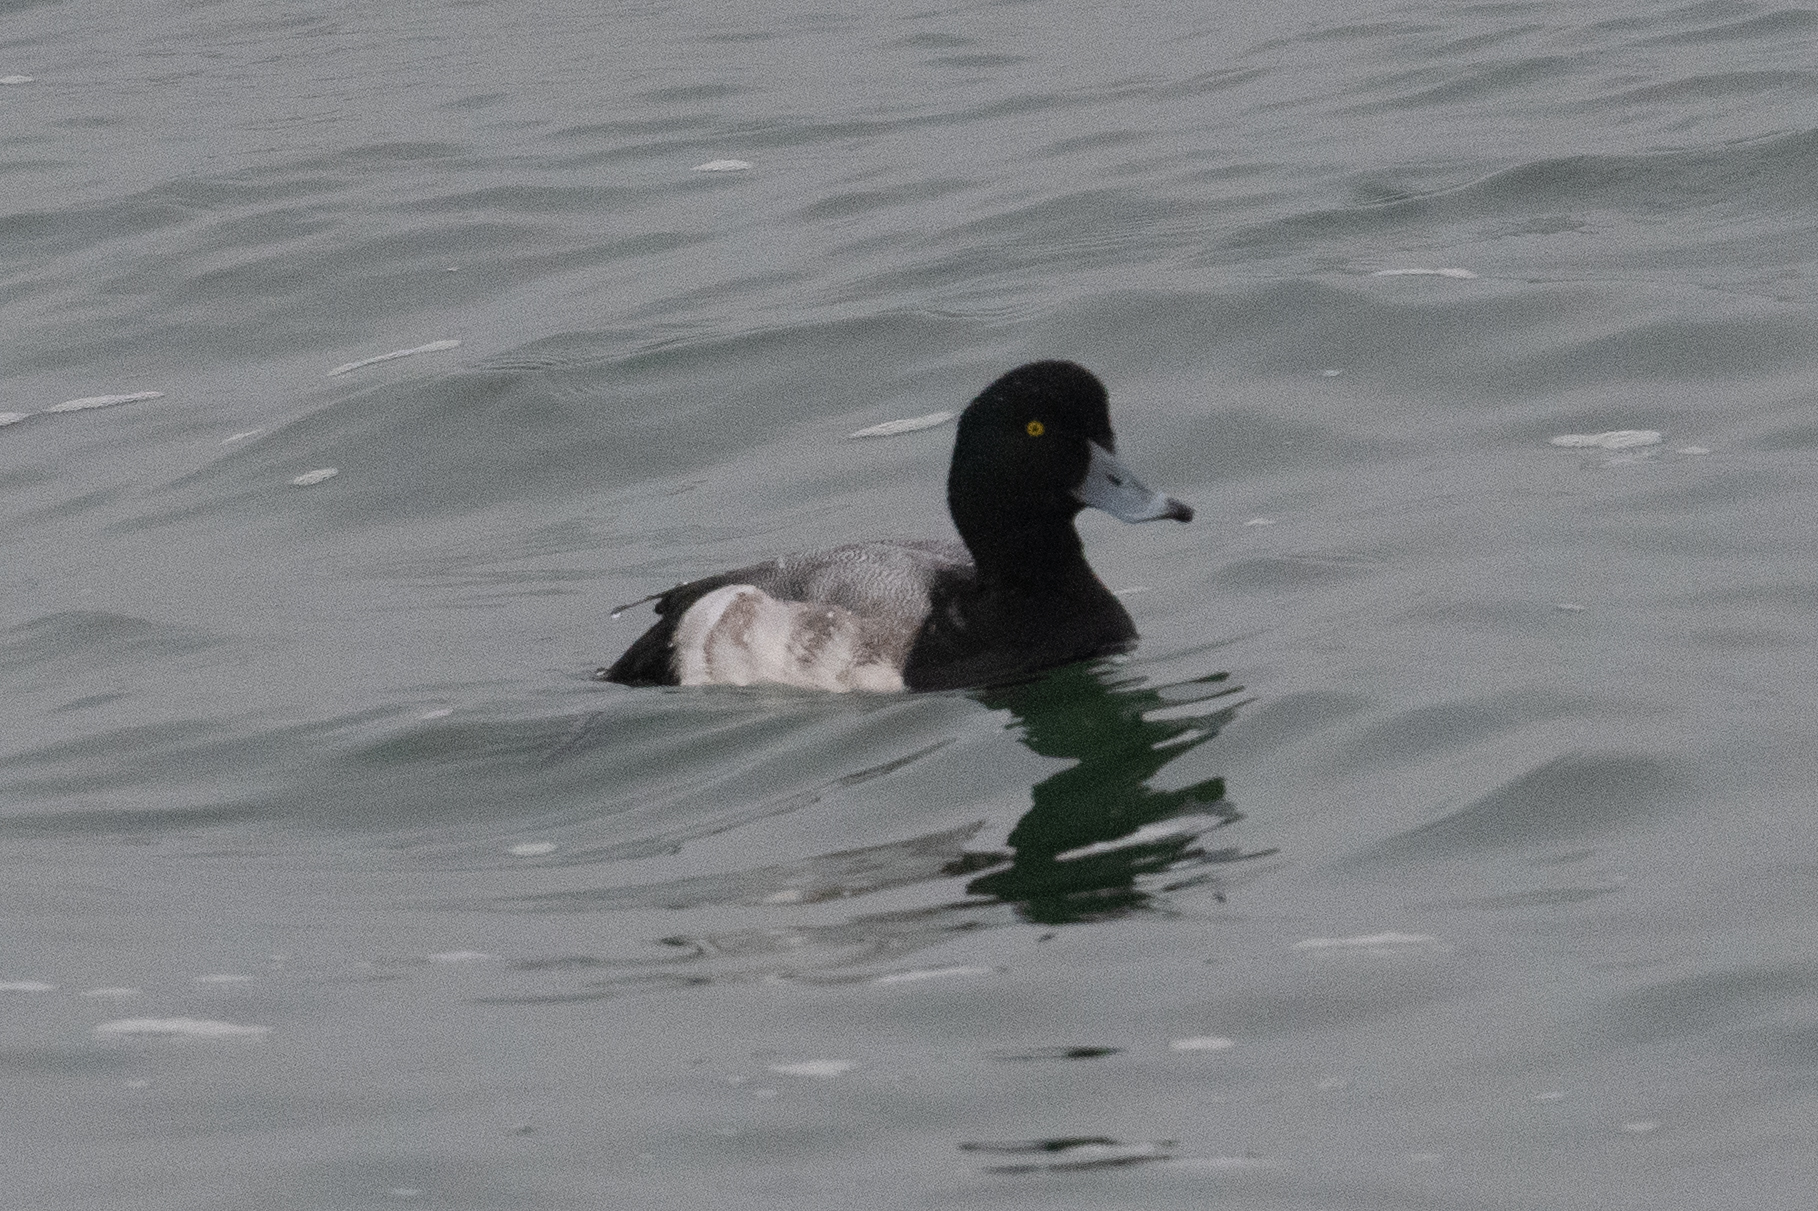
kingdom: Animalia
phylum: Chordata
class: Aves
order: Anseriformes
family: Anatidae
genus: Aythya
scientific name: Aythya marila
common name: Greater scaup
